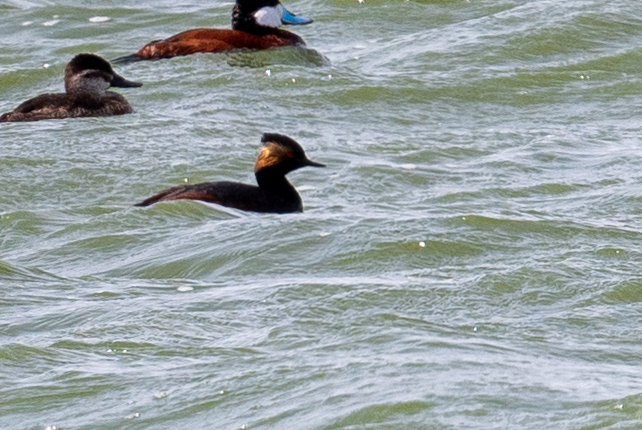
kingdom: Animalia
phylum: Chordata
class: Aves
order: Podicipediformes
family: Podicipedidae
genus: Podiceps
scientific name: Podiceps nigricollis
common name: Black-necked grebe
